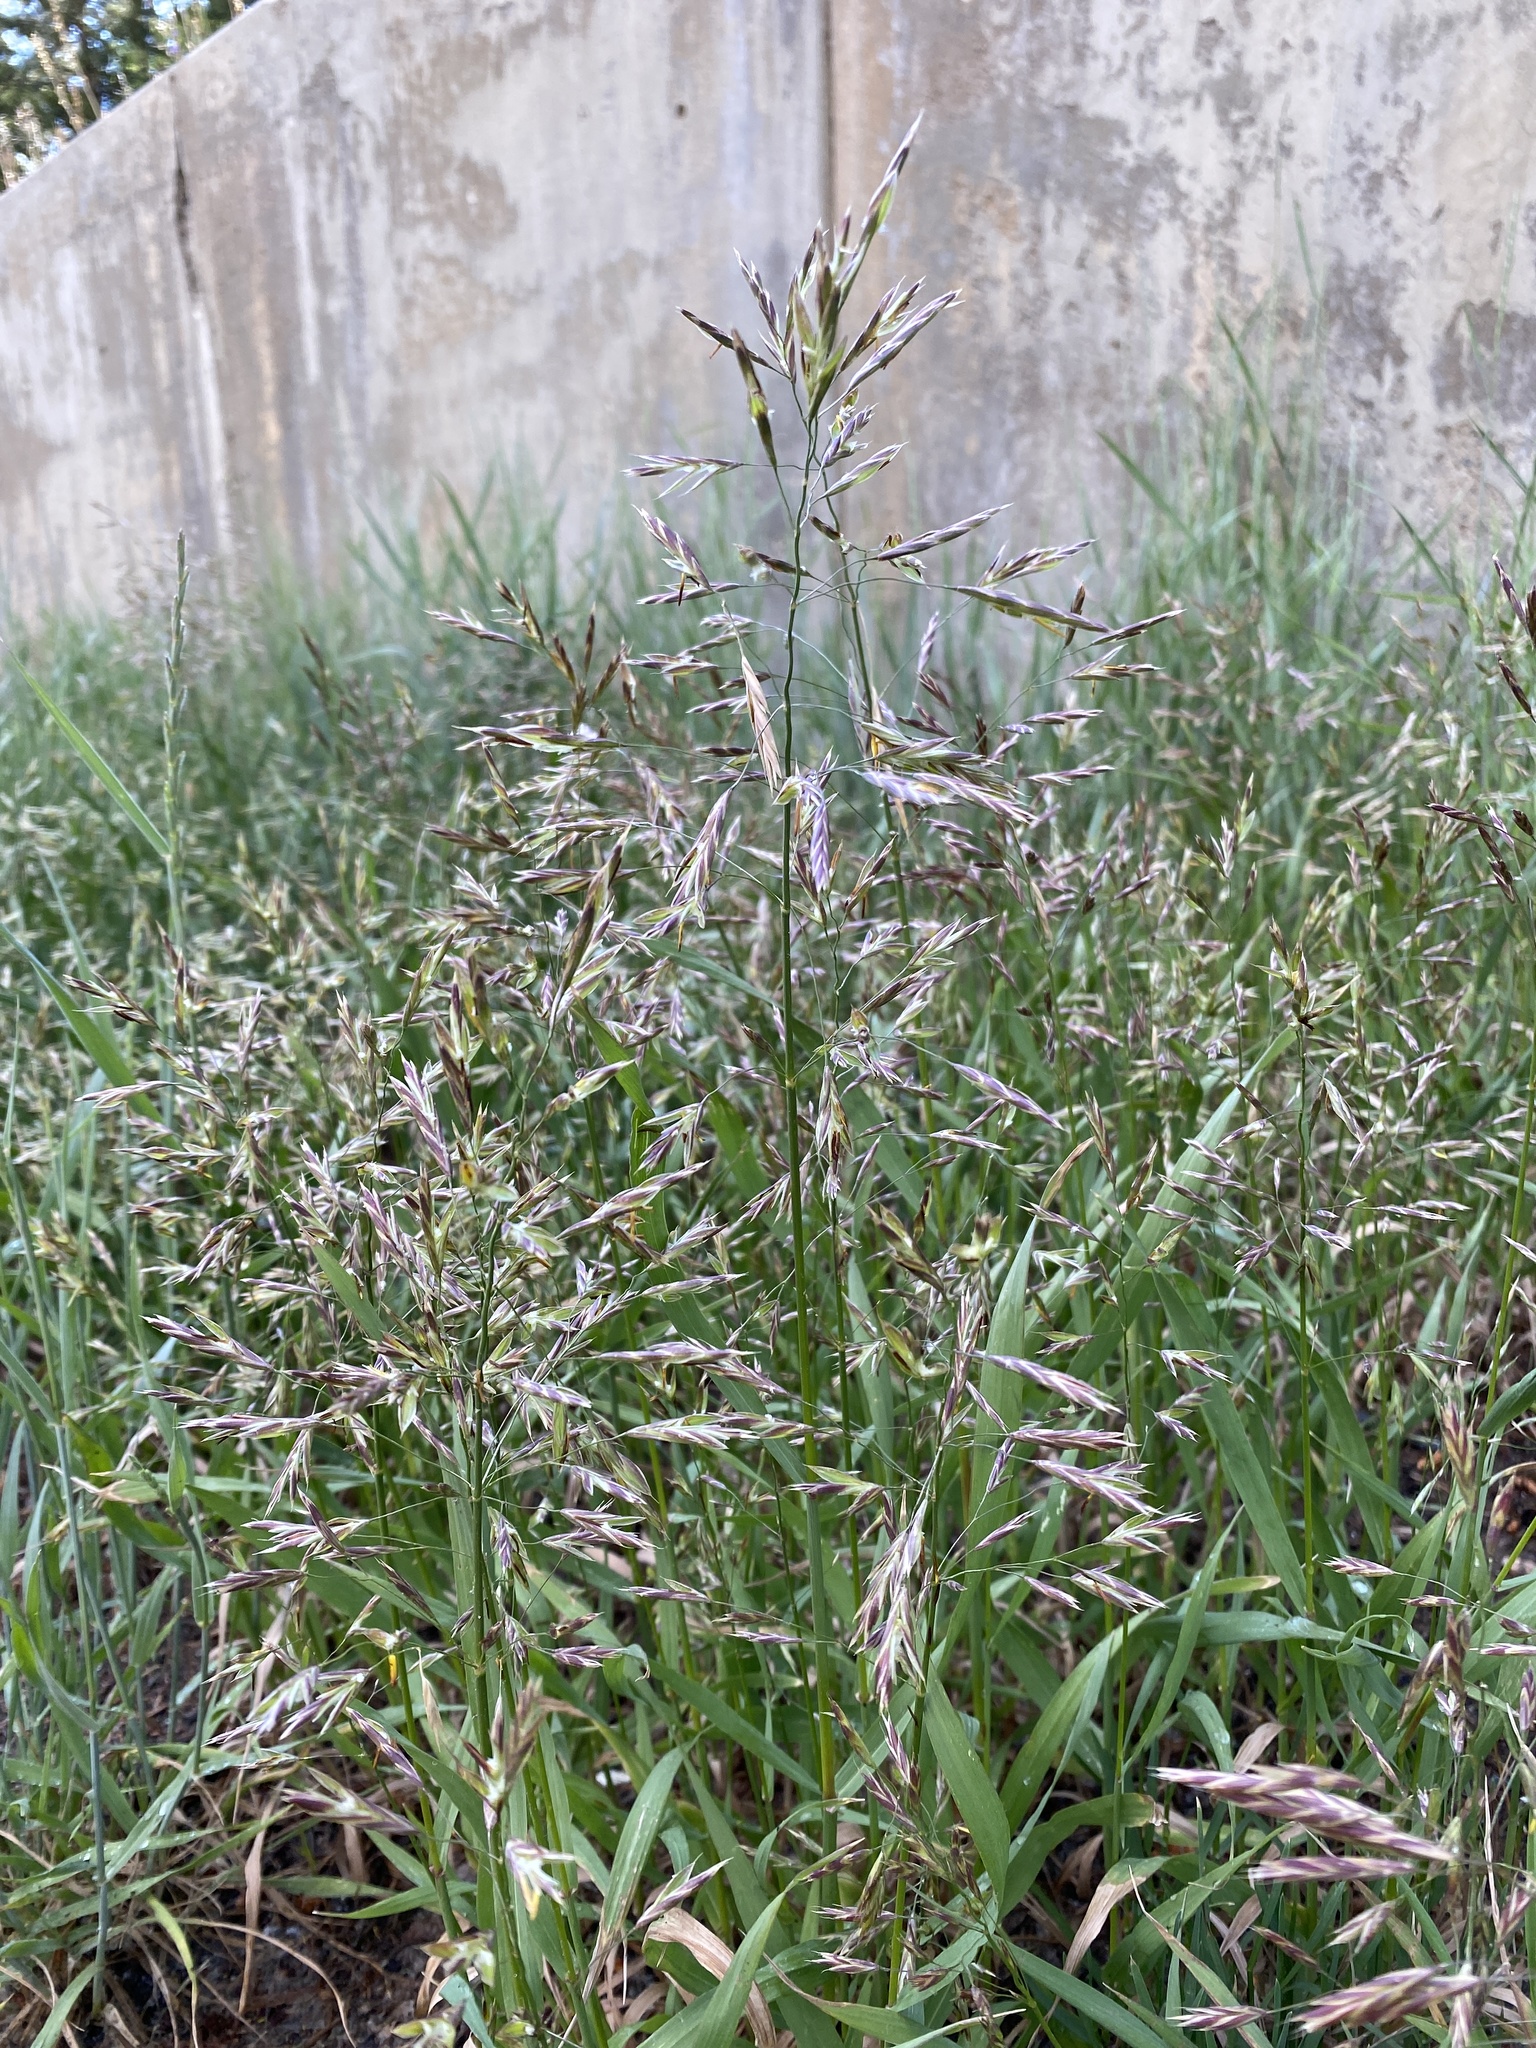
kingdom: Plantae
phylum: Tracheophyta
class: Liliopsida
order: Poales
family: Poaceae
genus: Bromus
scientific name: Bromus inermis
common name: Smooth brome
